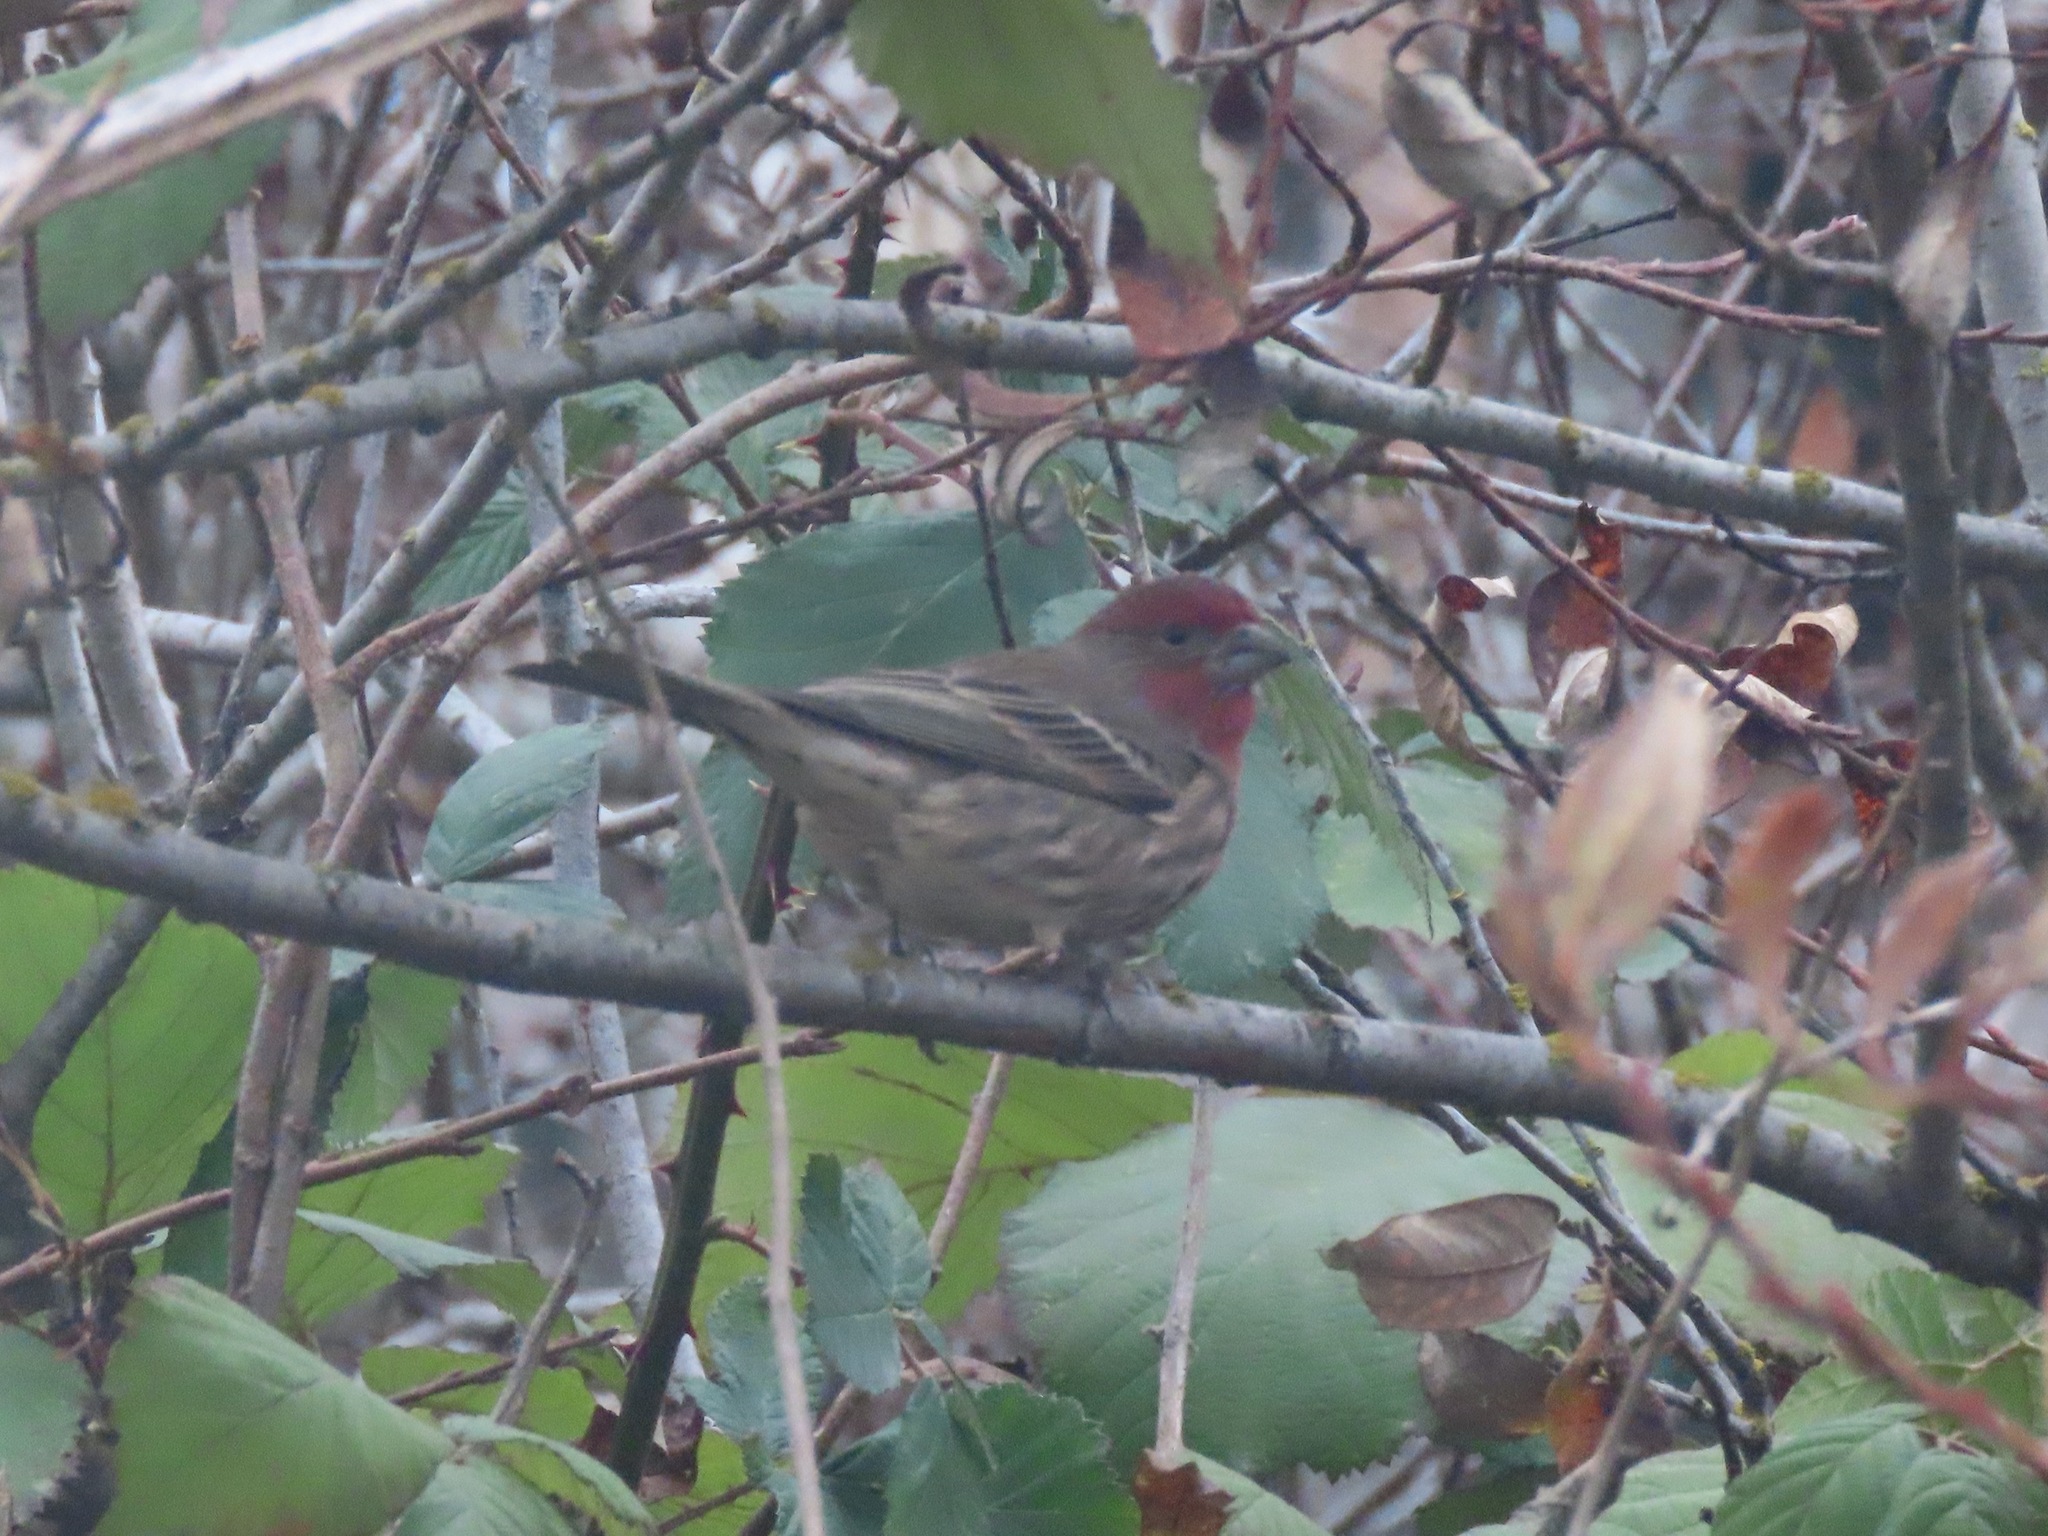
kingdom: Animalia
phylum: Chordata
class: Aves
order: Passeriformes
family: Fringillidae
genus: Haemorhous
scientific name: Haemorhous mexicanus
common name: House finch
